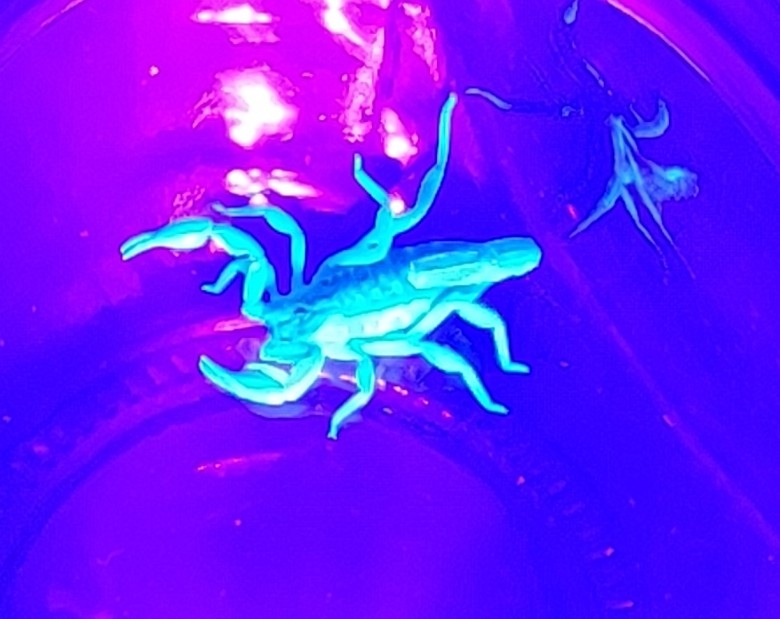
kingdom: Animalia
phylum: Arthropoda
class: Arachnida
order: Scorpiones
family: Vaejovidae
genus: Chihuahuanus
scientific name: Chihuahuanus coahuilae
